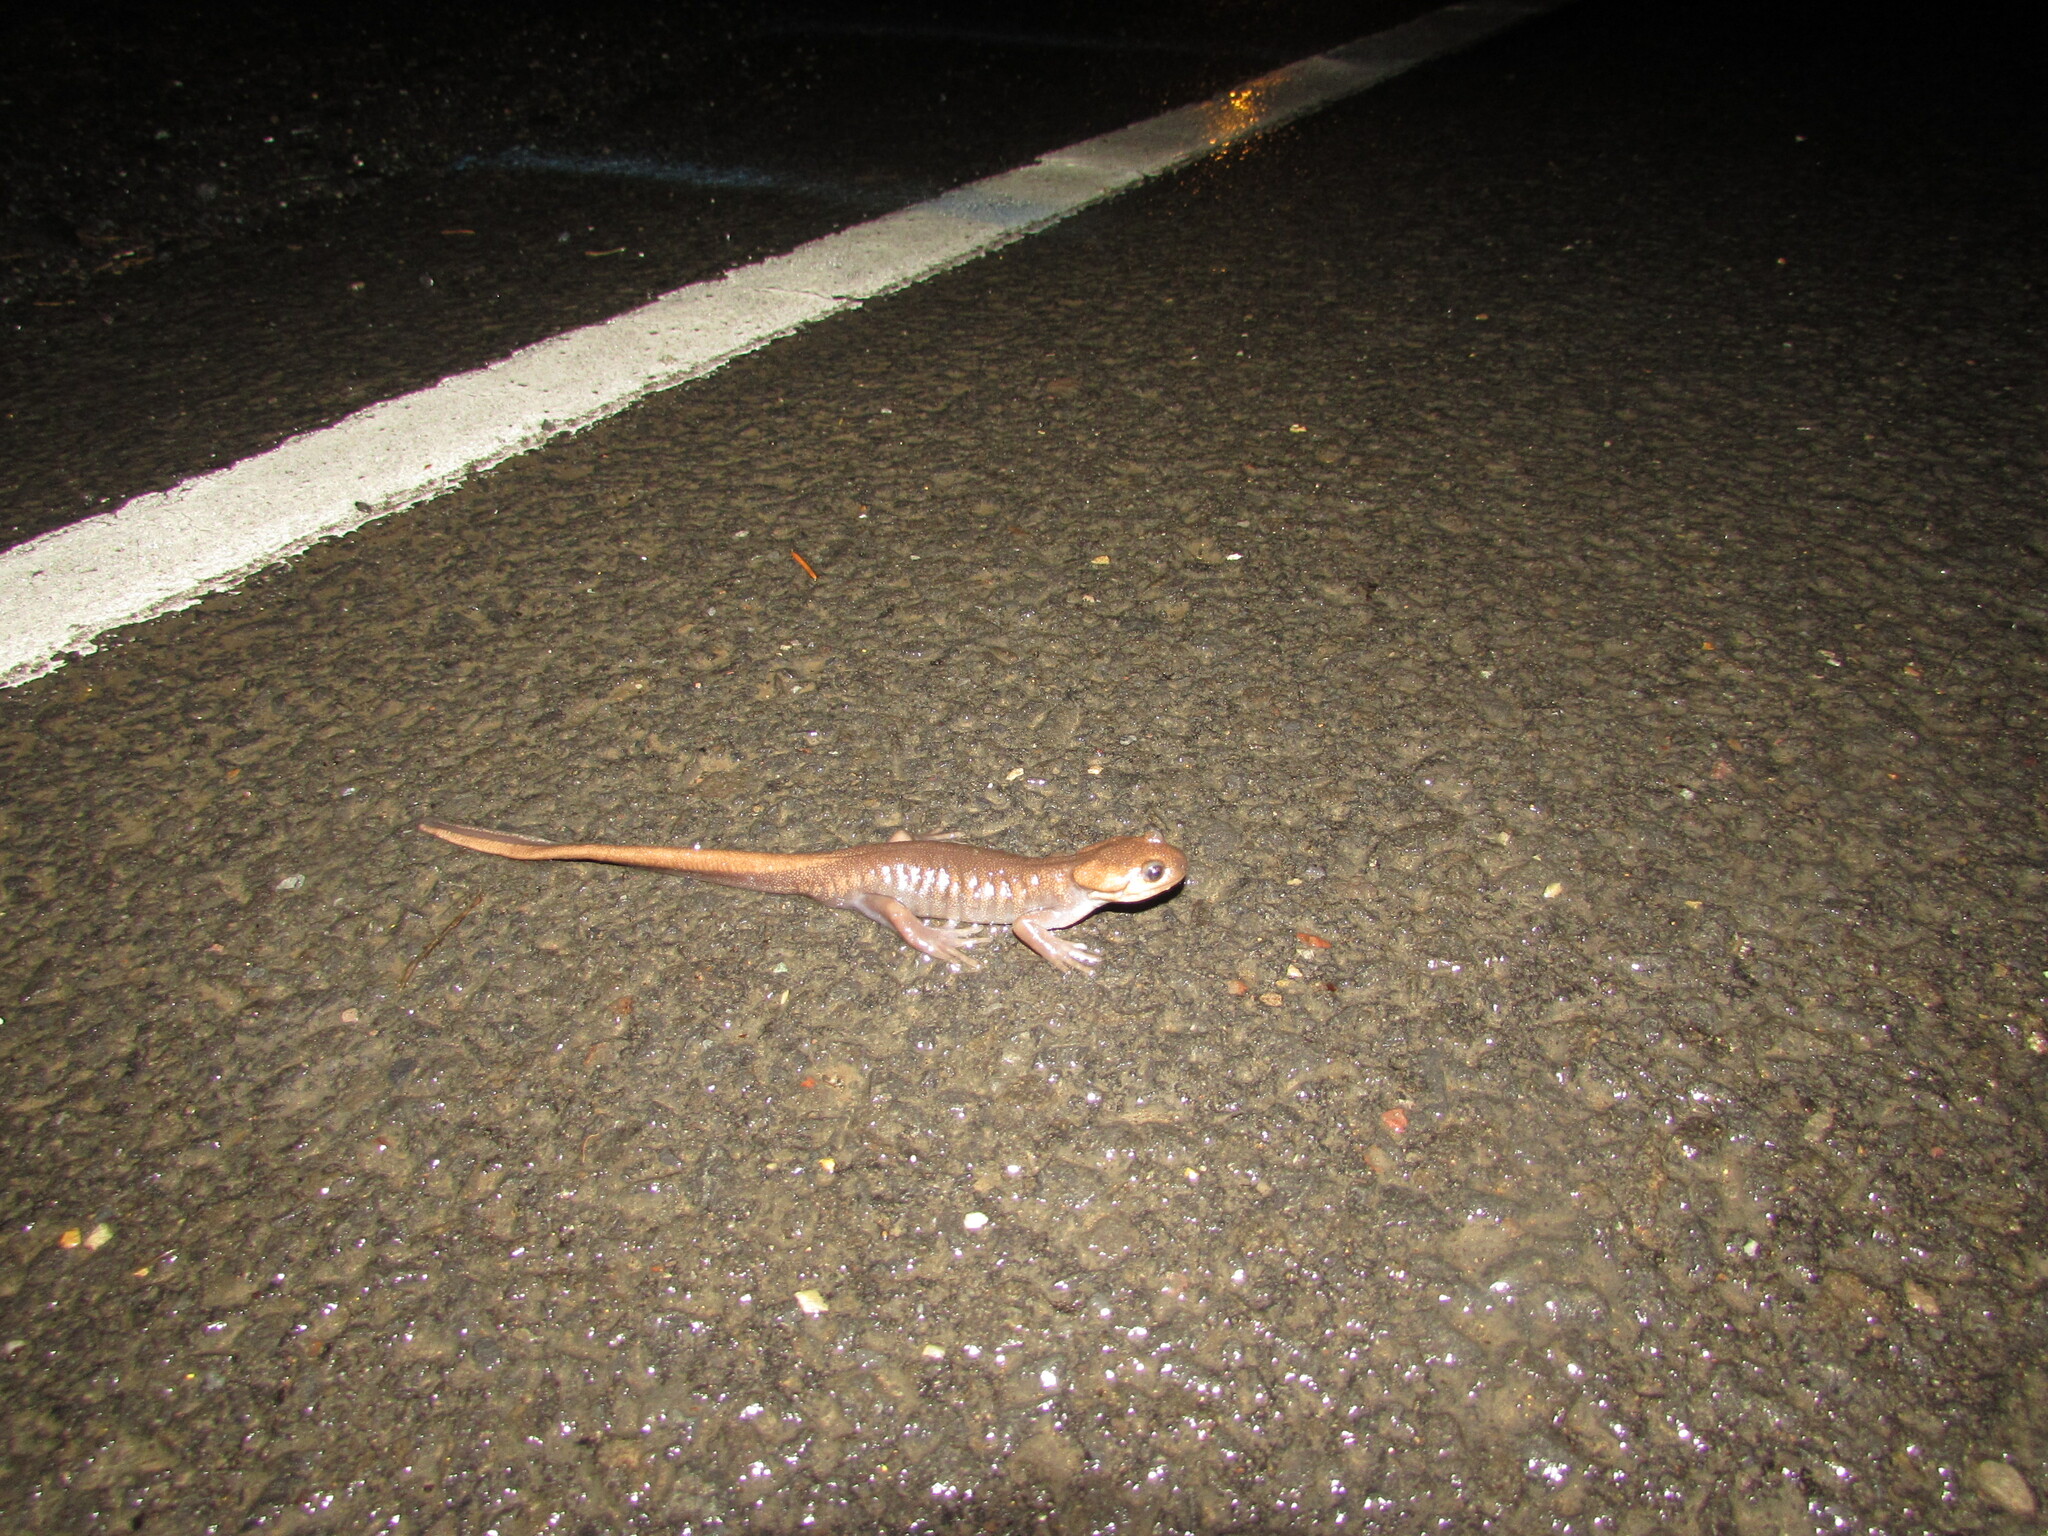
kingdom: Animalia
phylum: Chordata
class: Amphibia
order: Caudata
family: Ambystomatidae
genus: Ambystoma
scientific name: Ambystoma gracile
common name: Northwestern salamander
